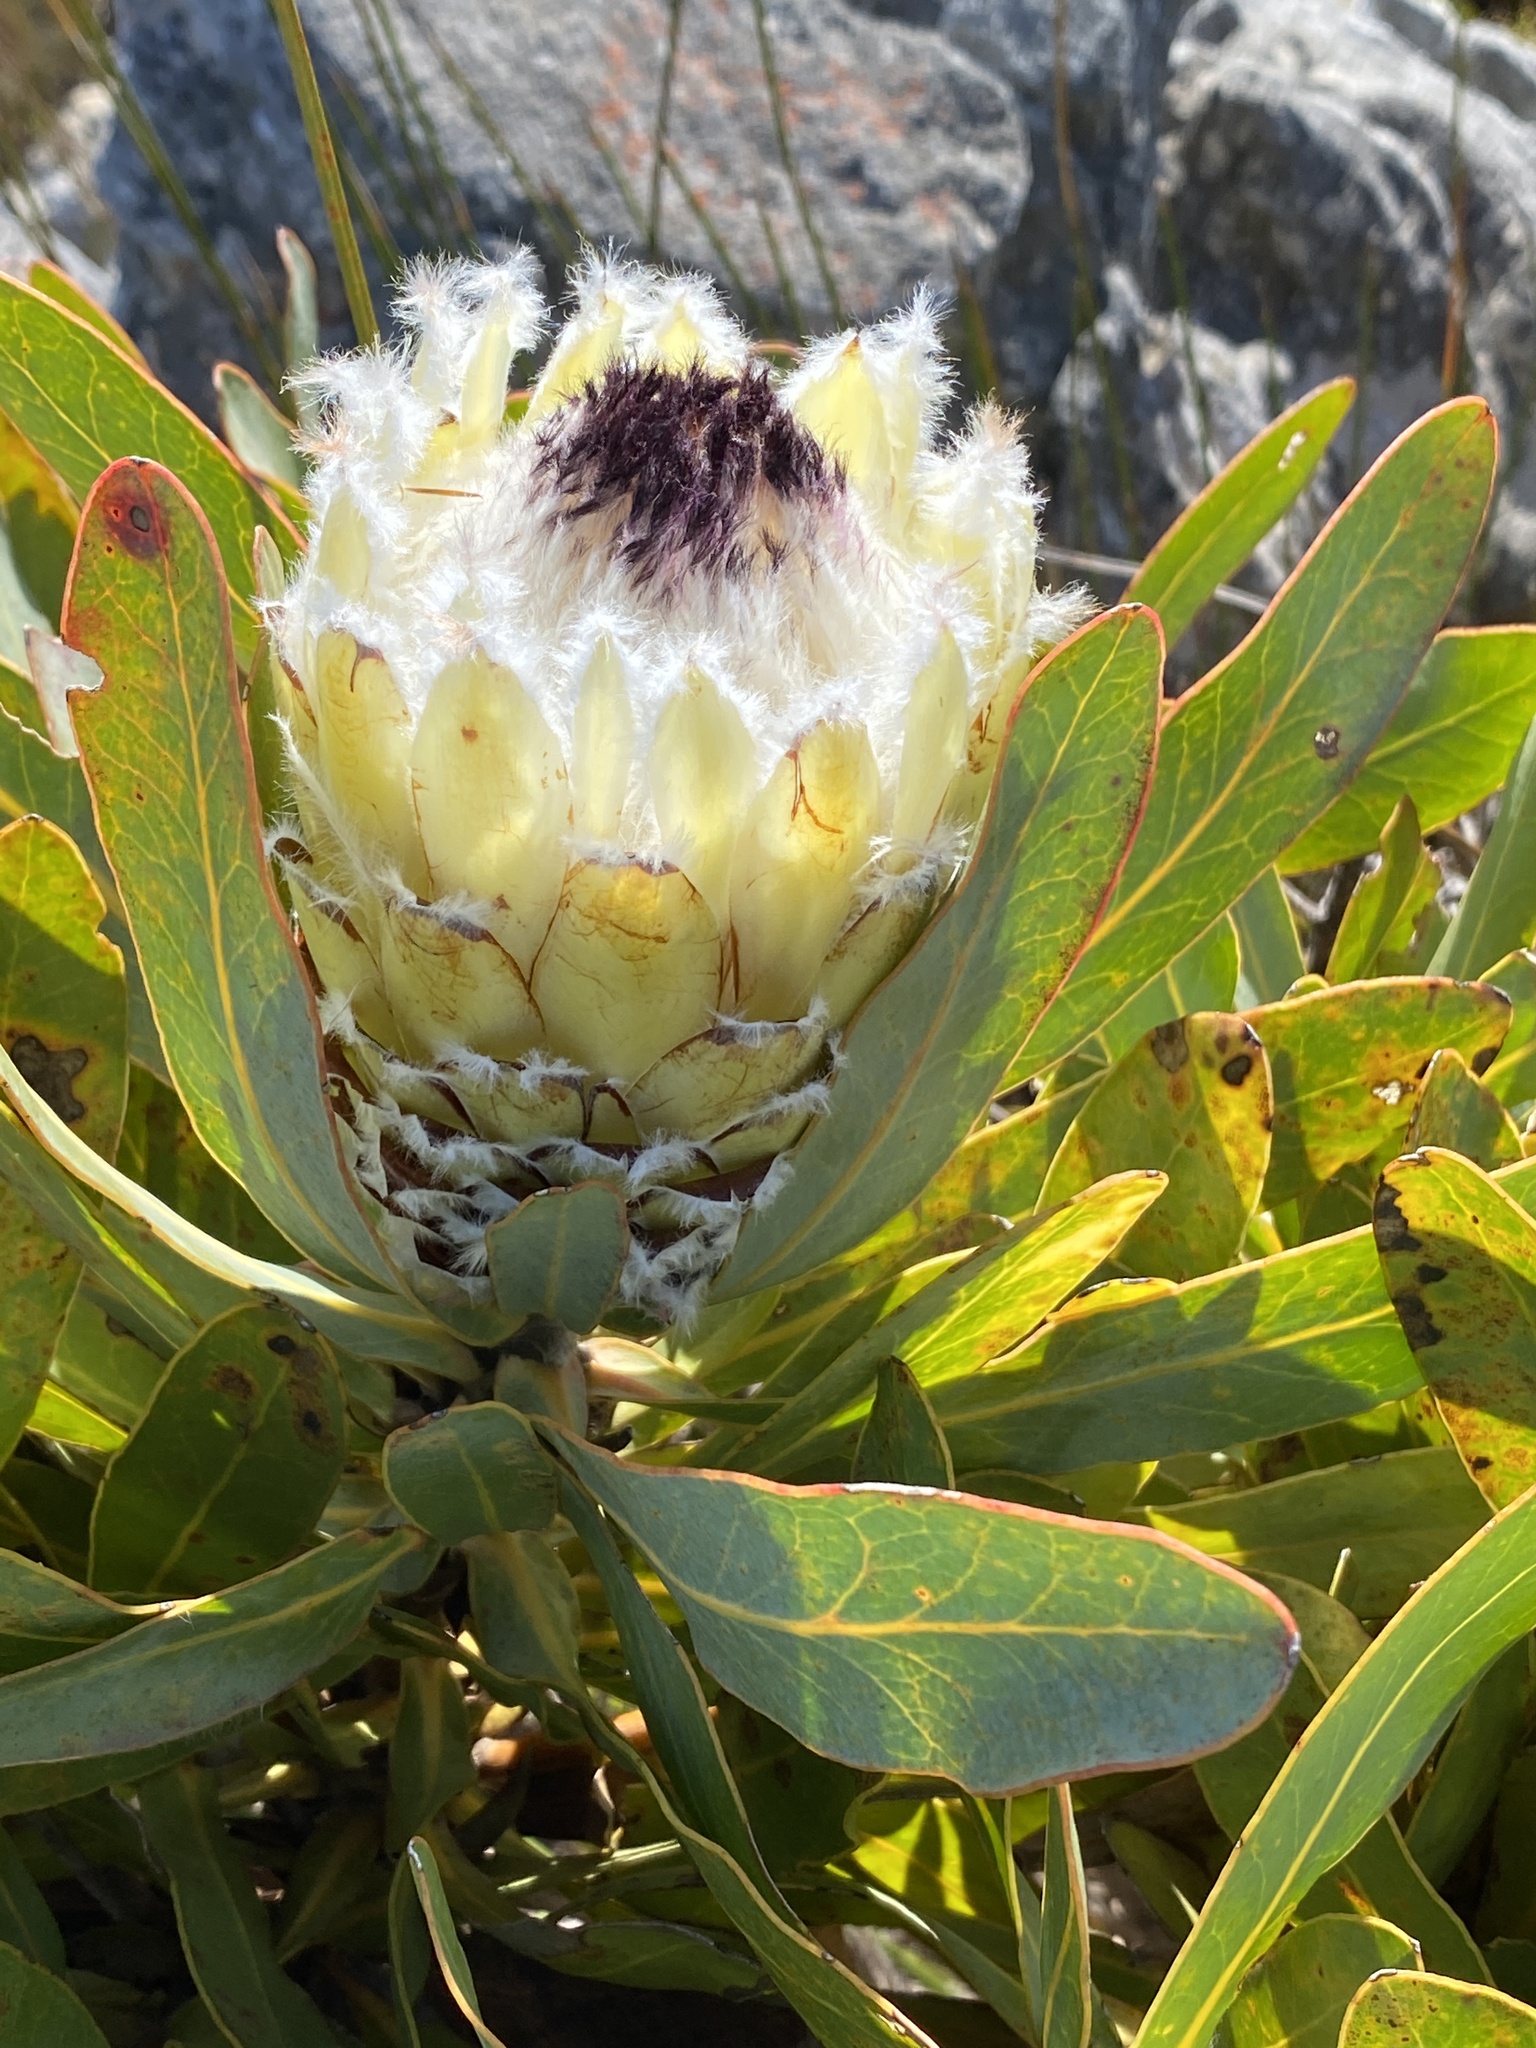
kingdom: Plantae
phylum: Tracheophyta
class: Magnoliopsida
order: Proteales
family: Proteaceae
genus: Protea
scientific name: Protea magnifica
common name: Bearded sugarbush
